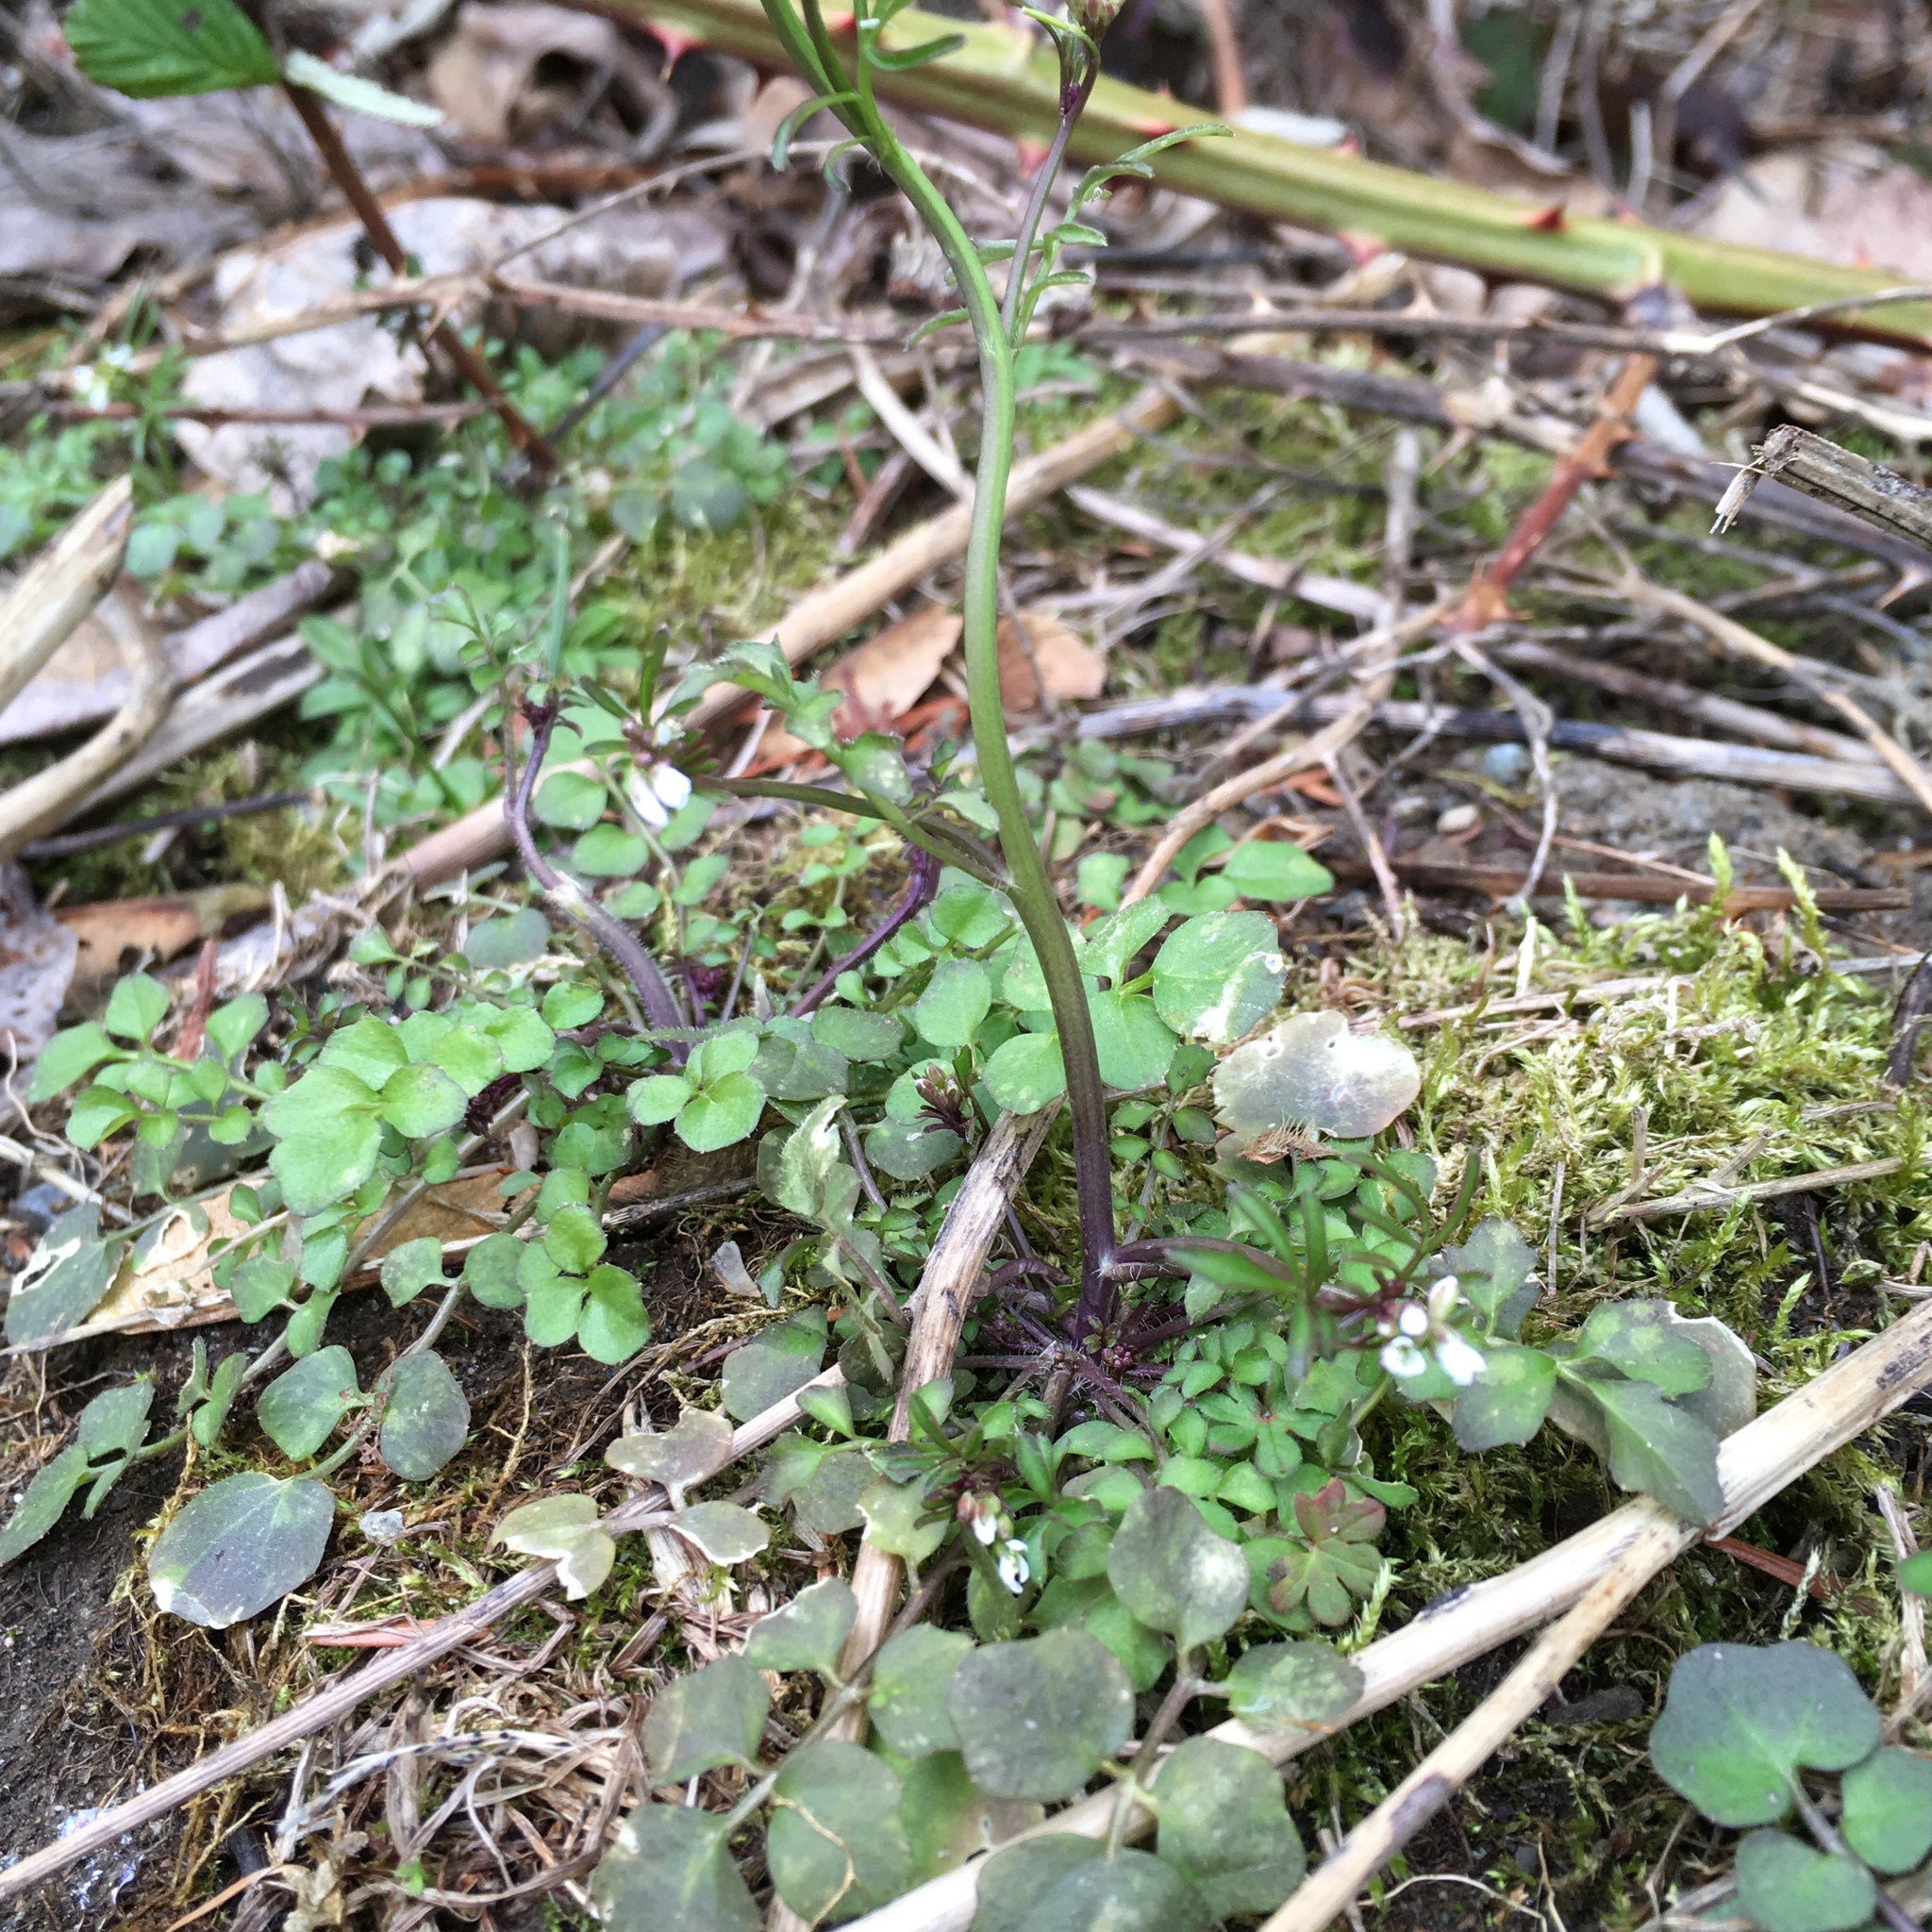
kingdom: Plantae
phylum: Tracheophyta
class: Magnoliopsida
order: Brassicales
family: Brassicaceae
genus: Cardamine
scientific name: Cardamine hirsuta
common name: Hairy bittercress
